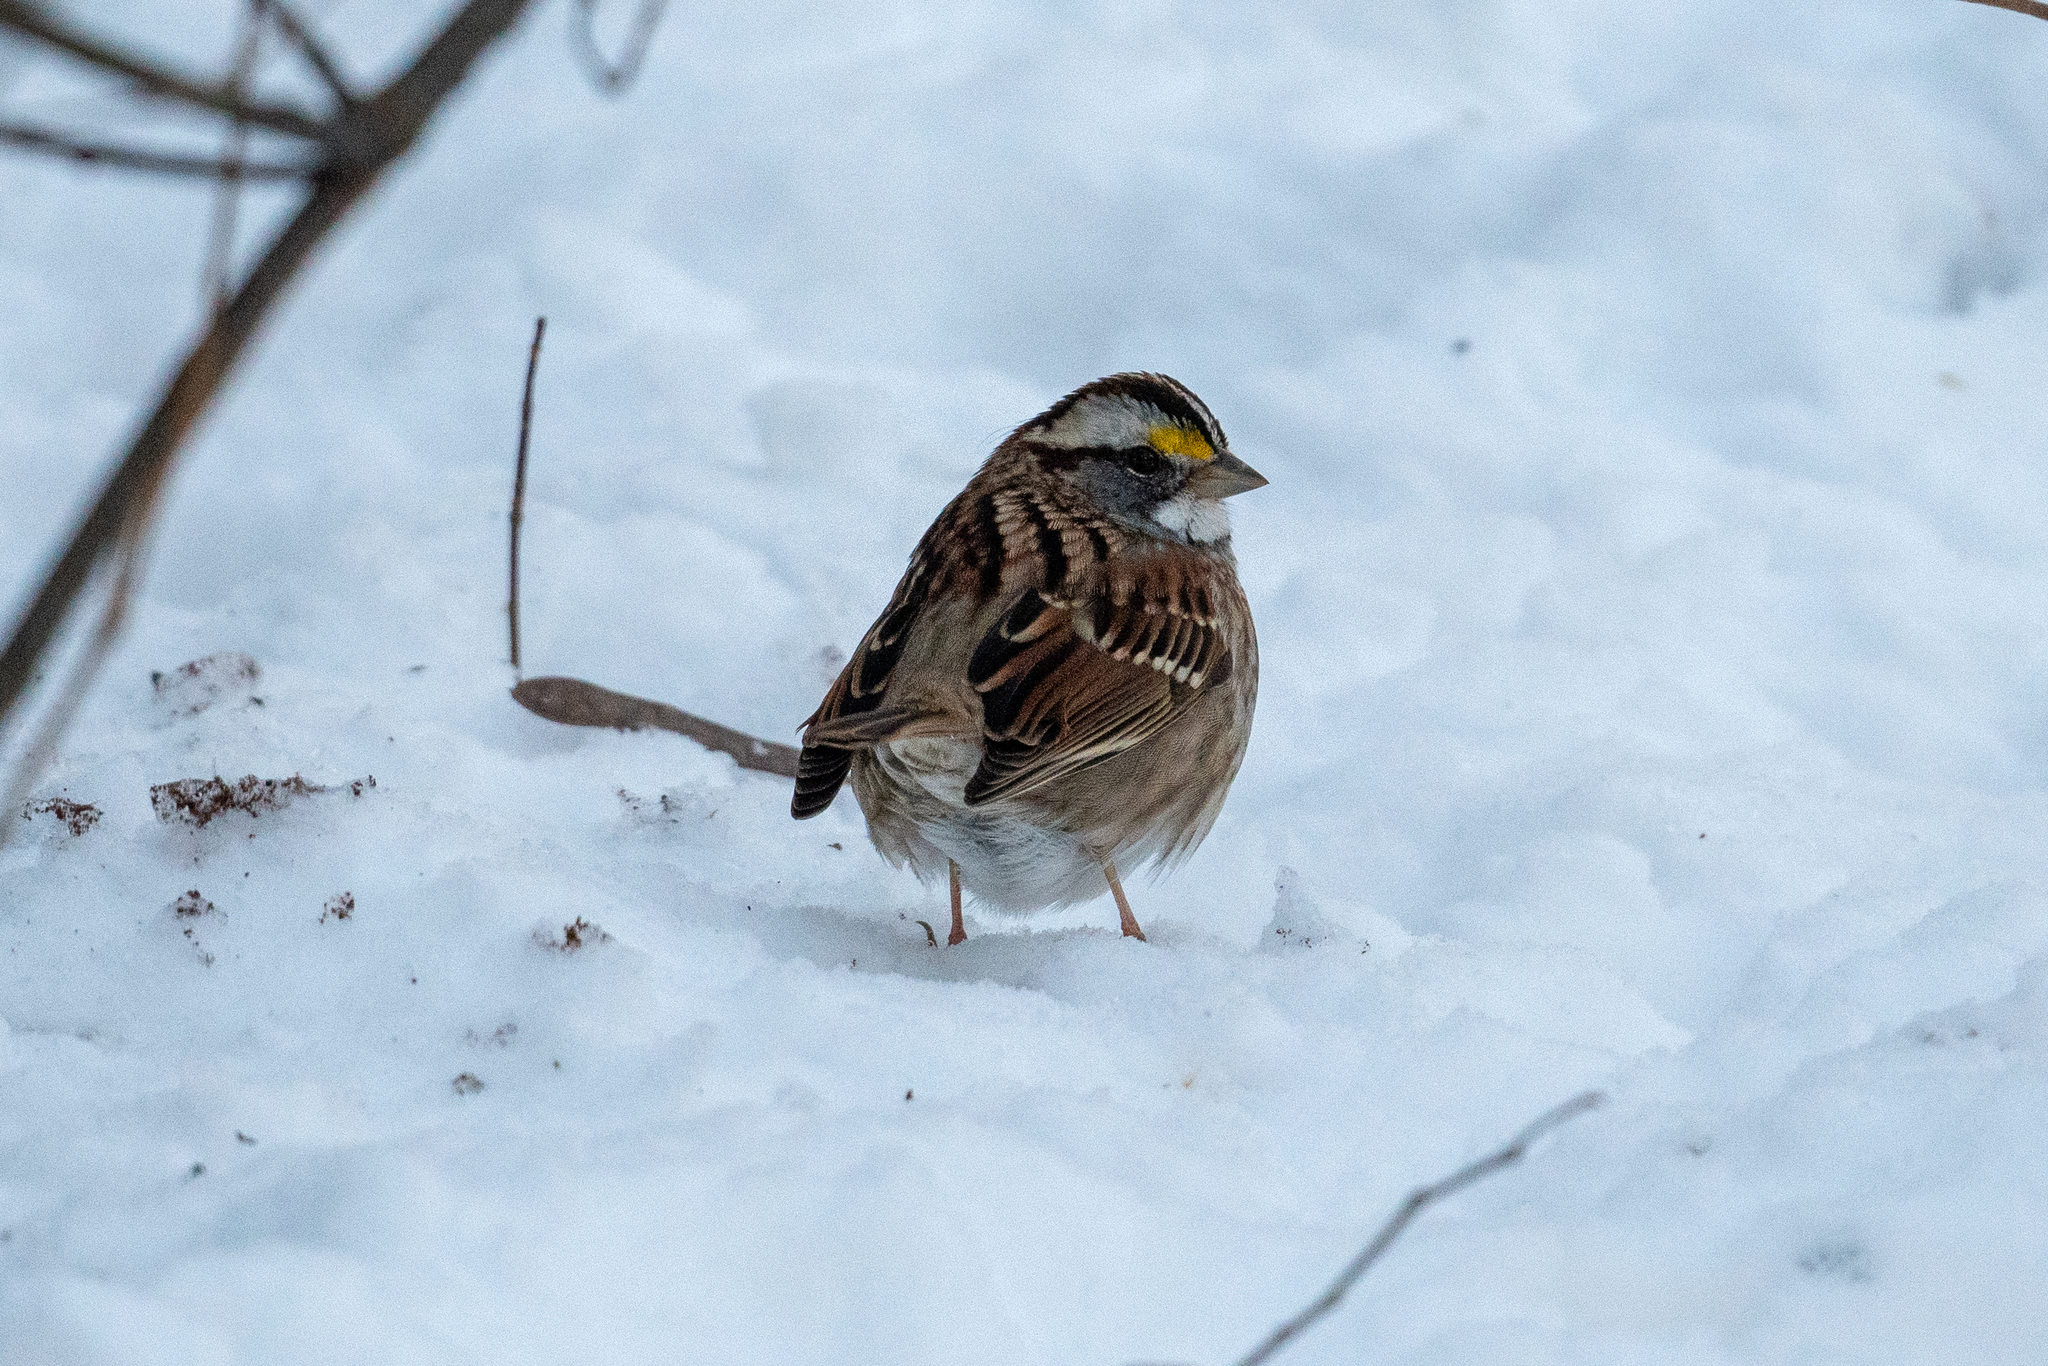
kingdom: Animalia
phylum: Chordata
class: Aves
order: Passeriformes
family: Passerellidae
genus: Zonotrichia
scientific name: Zonotrichia albicollis
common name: White-throated sparrow
